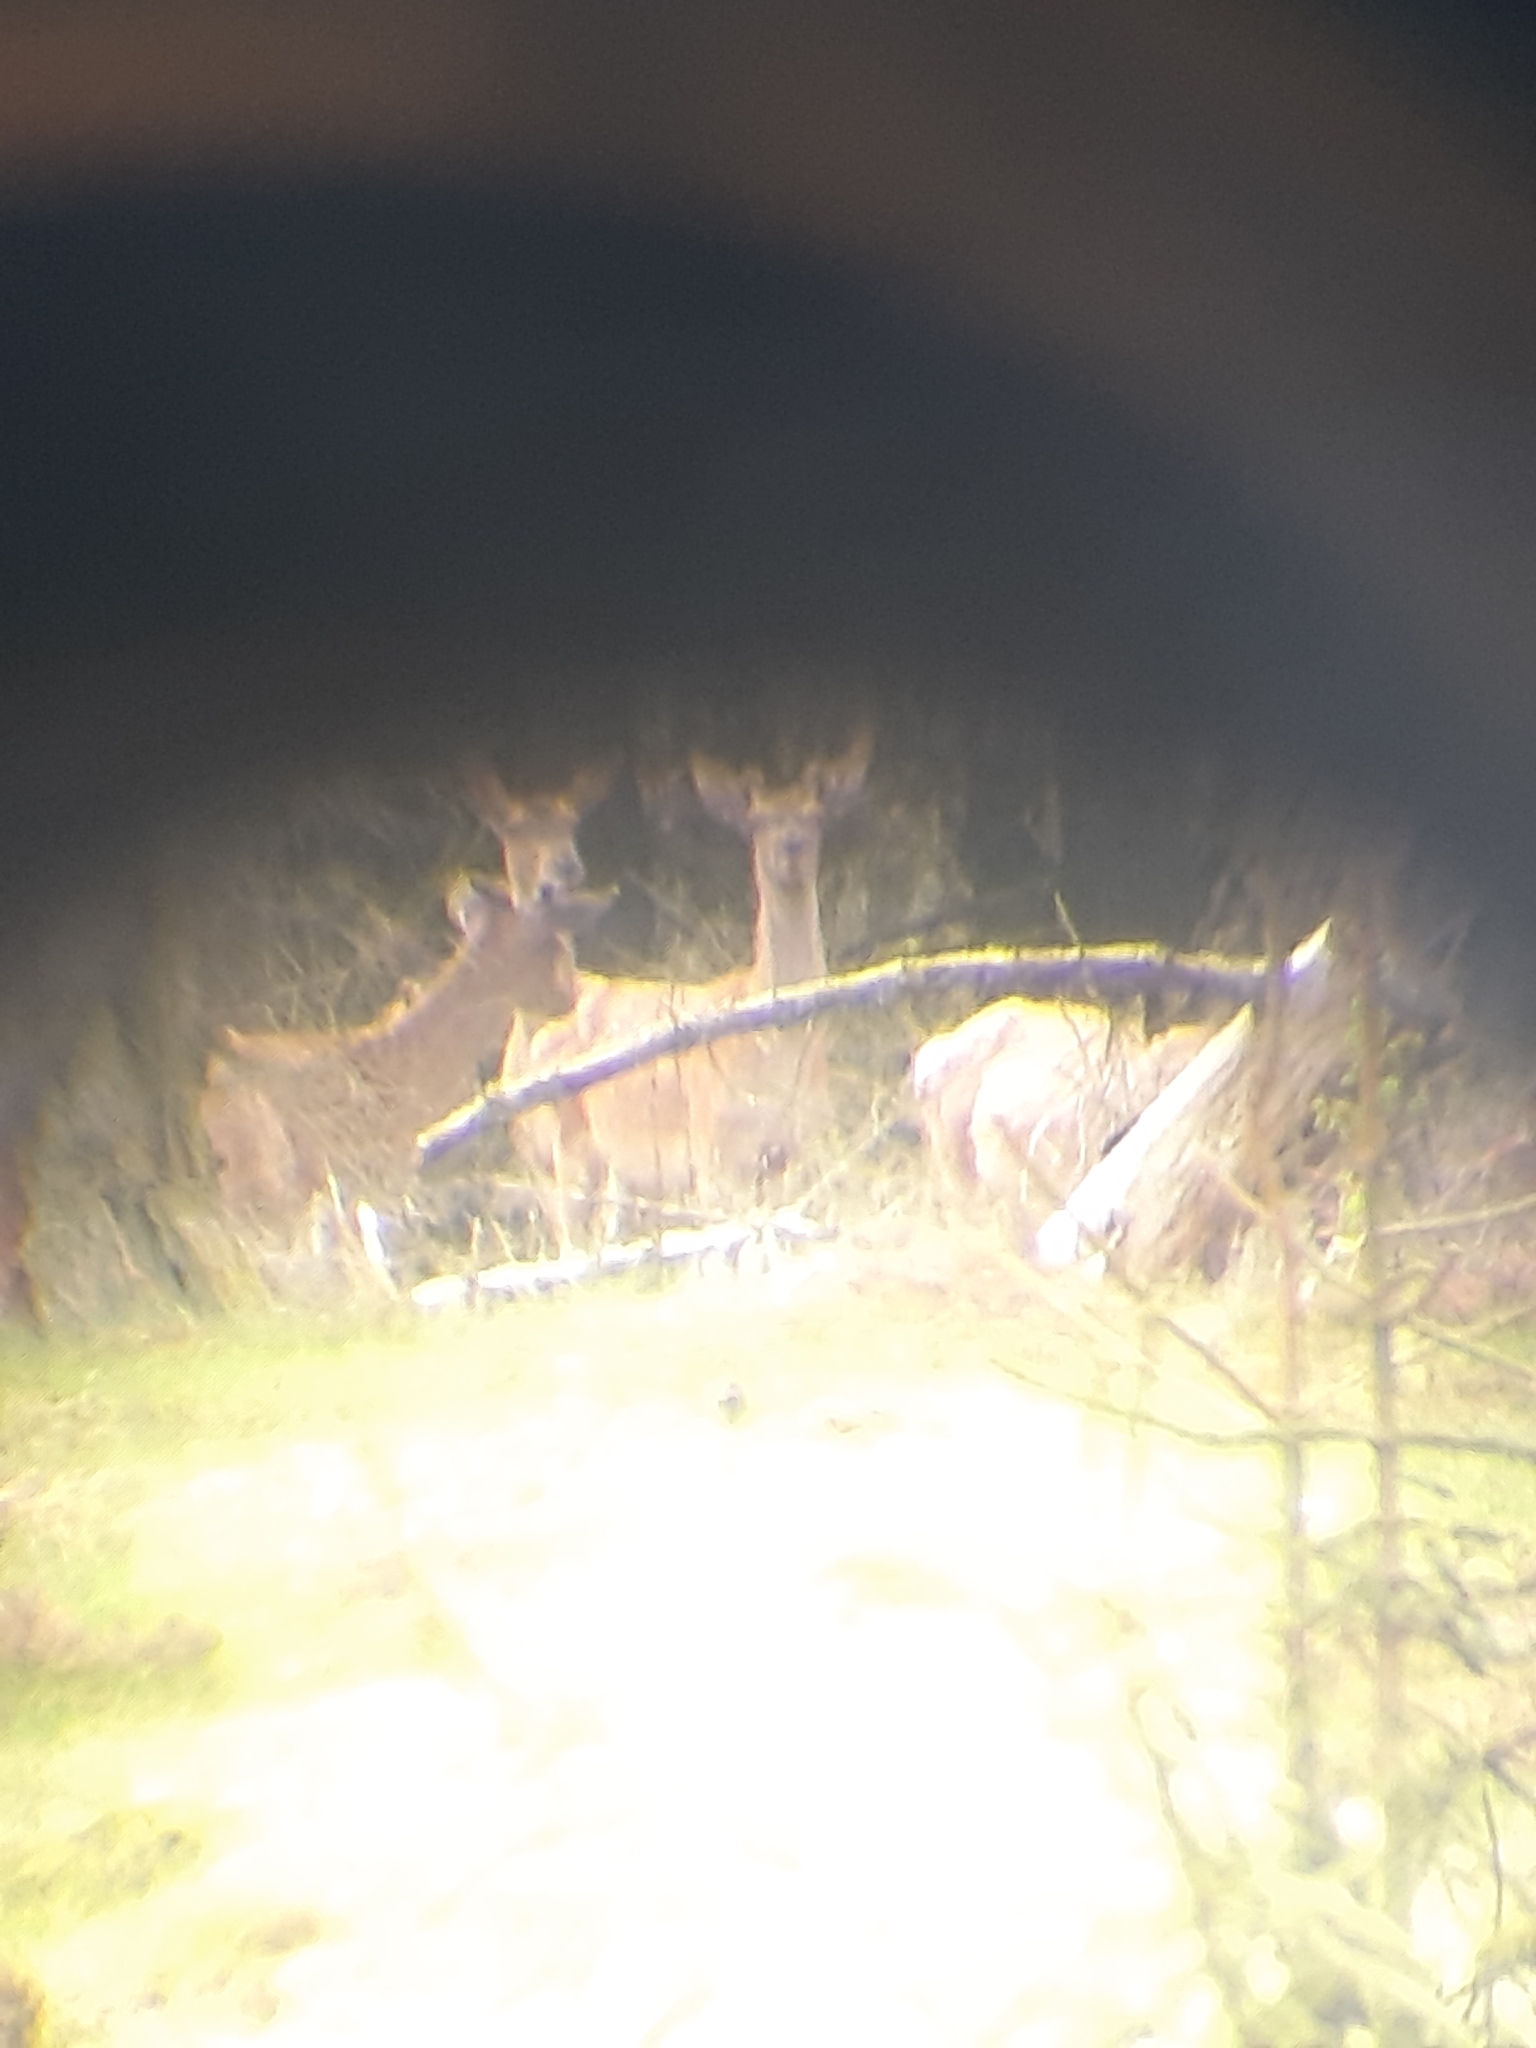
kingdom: Animalia
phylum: Chordata
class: Mammalia
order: Artiodactyla
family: Cervidae
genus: Cervus
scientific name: Cervus elaphus
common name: Red deer
